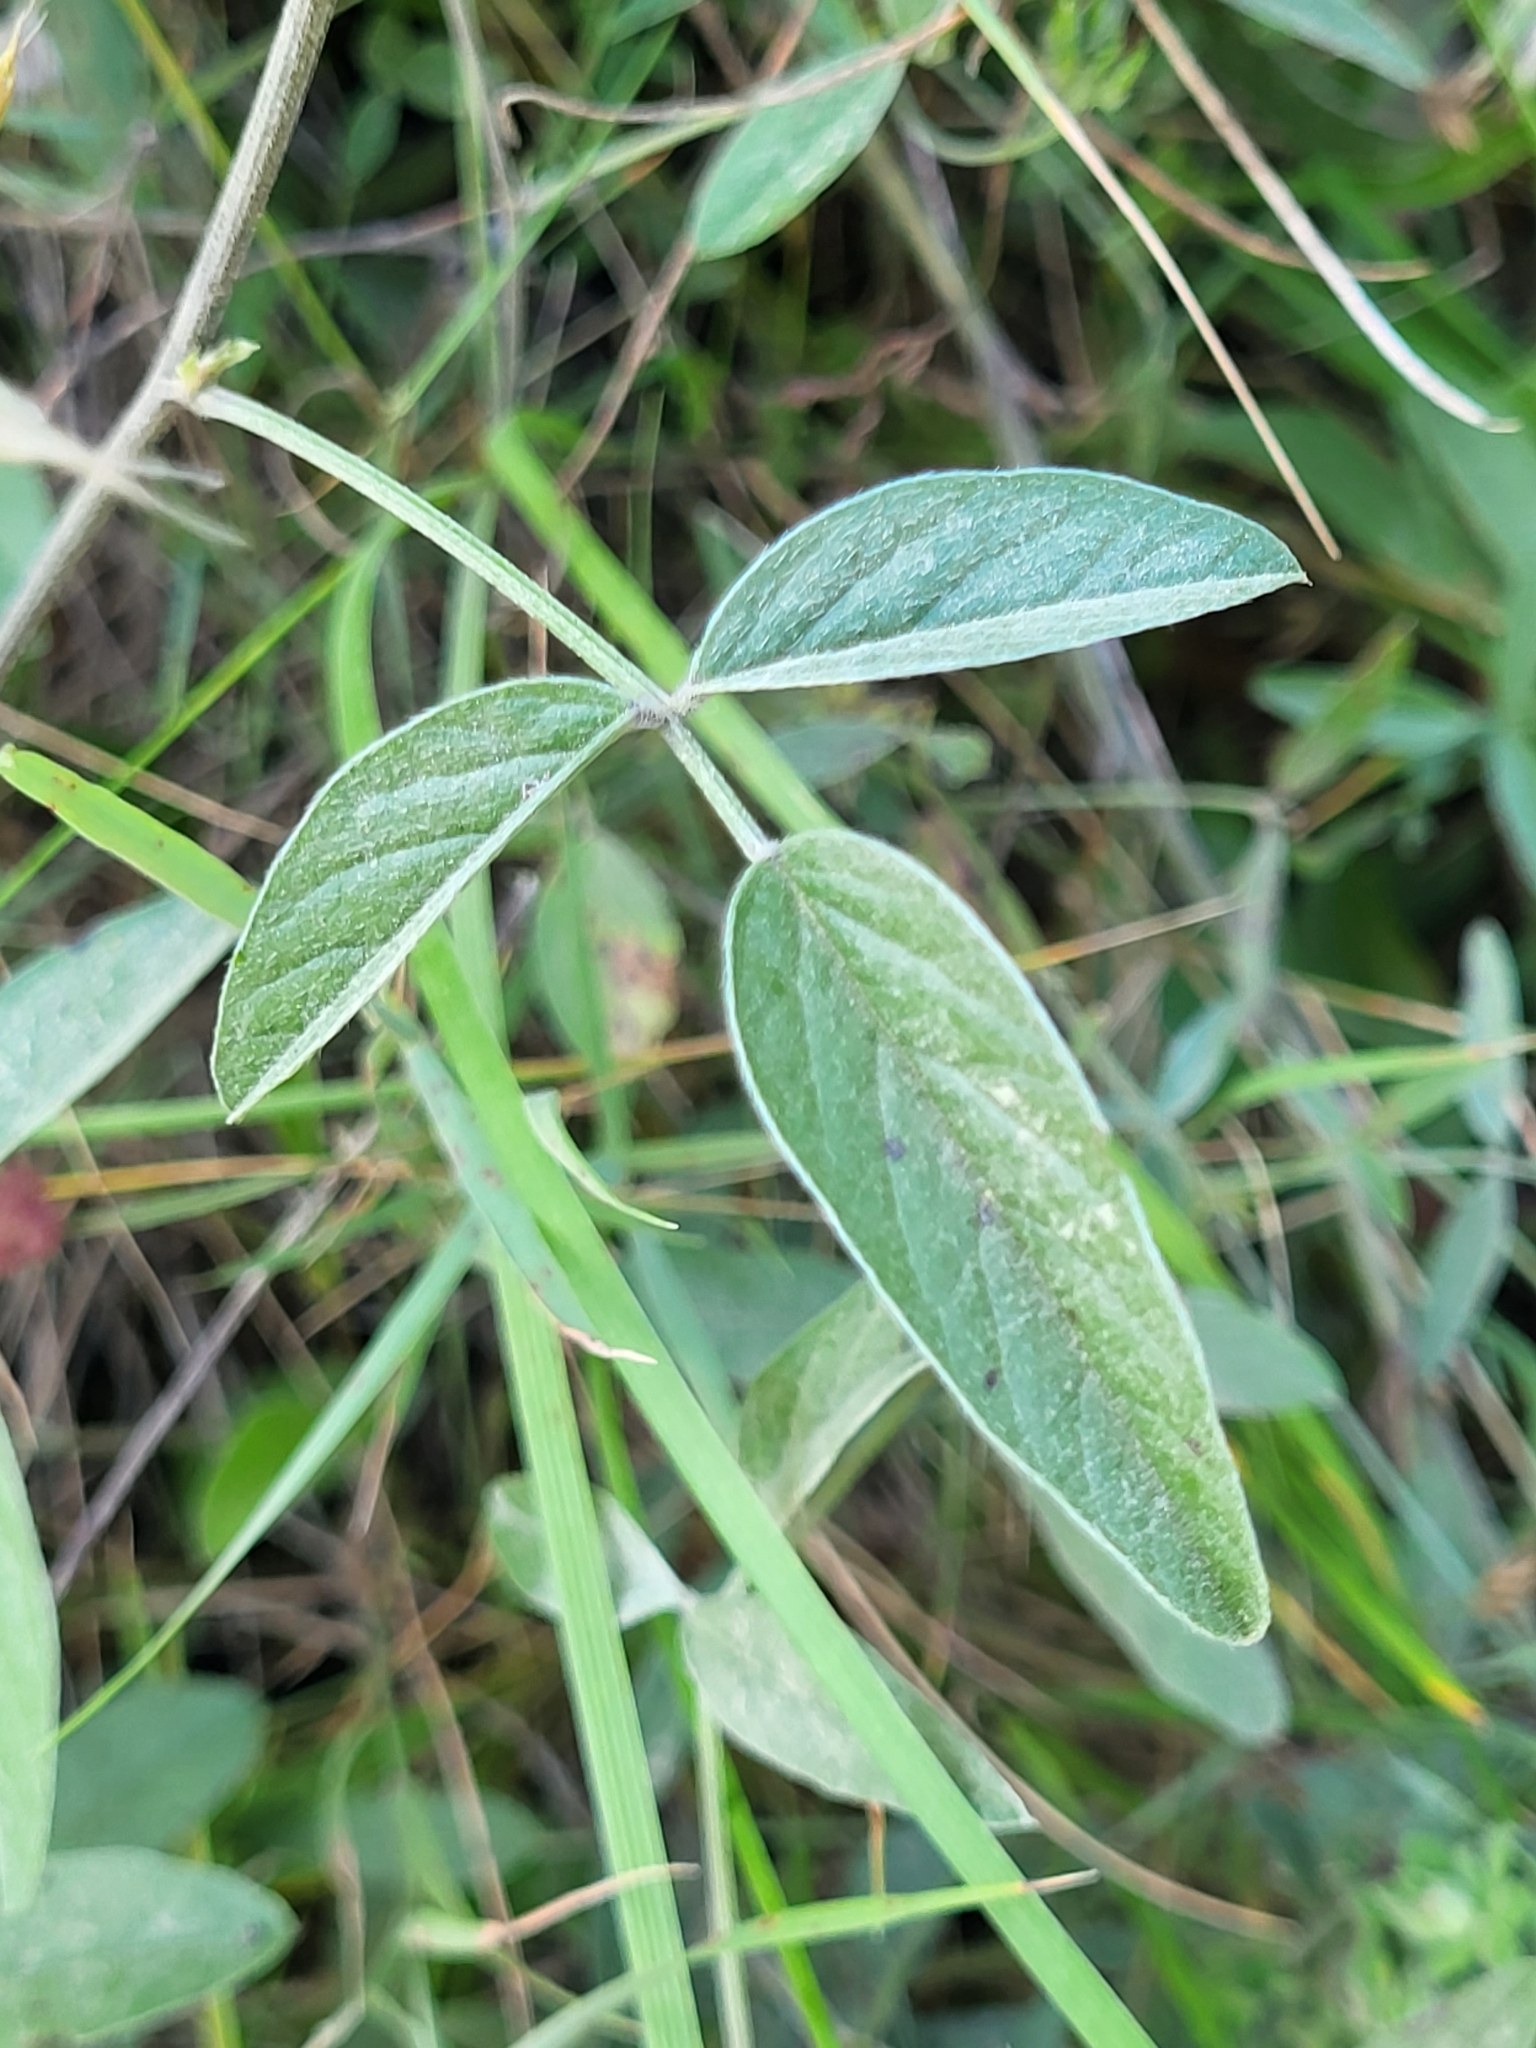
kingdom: Plantae
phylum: Tracheophyta
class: Magnoliopsida
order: Fabales
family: Fabaceae
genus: Bituminaria
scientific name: Bituminaria bituminosa
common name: Arabian pea
